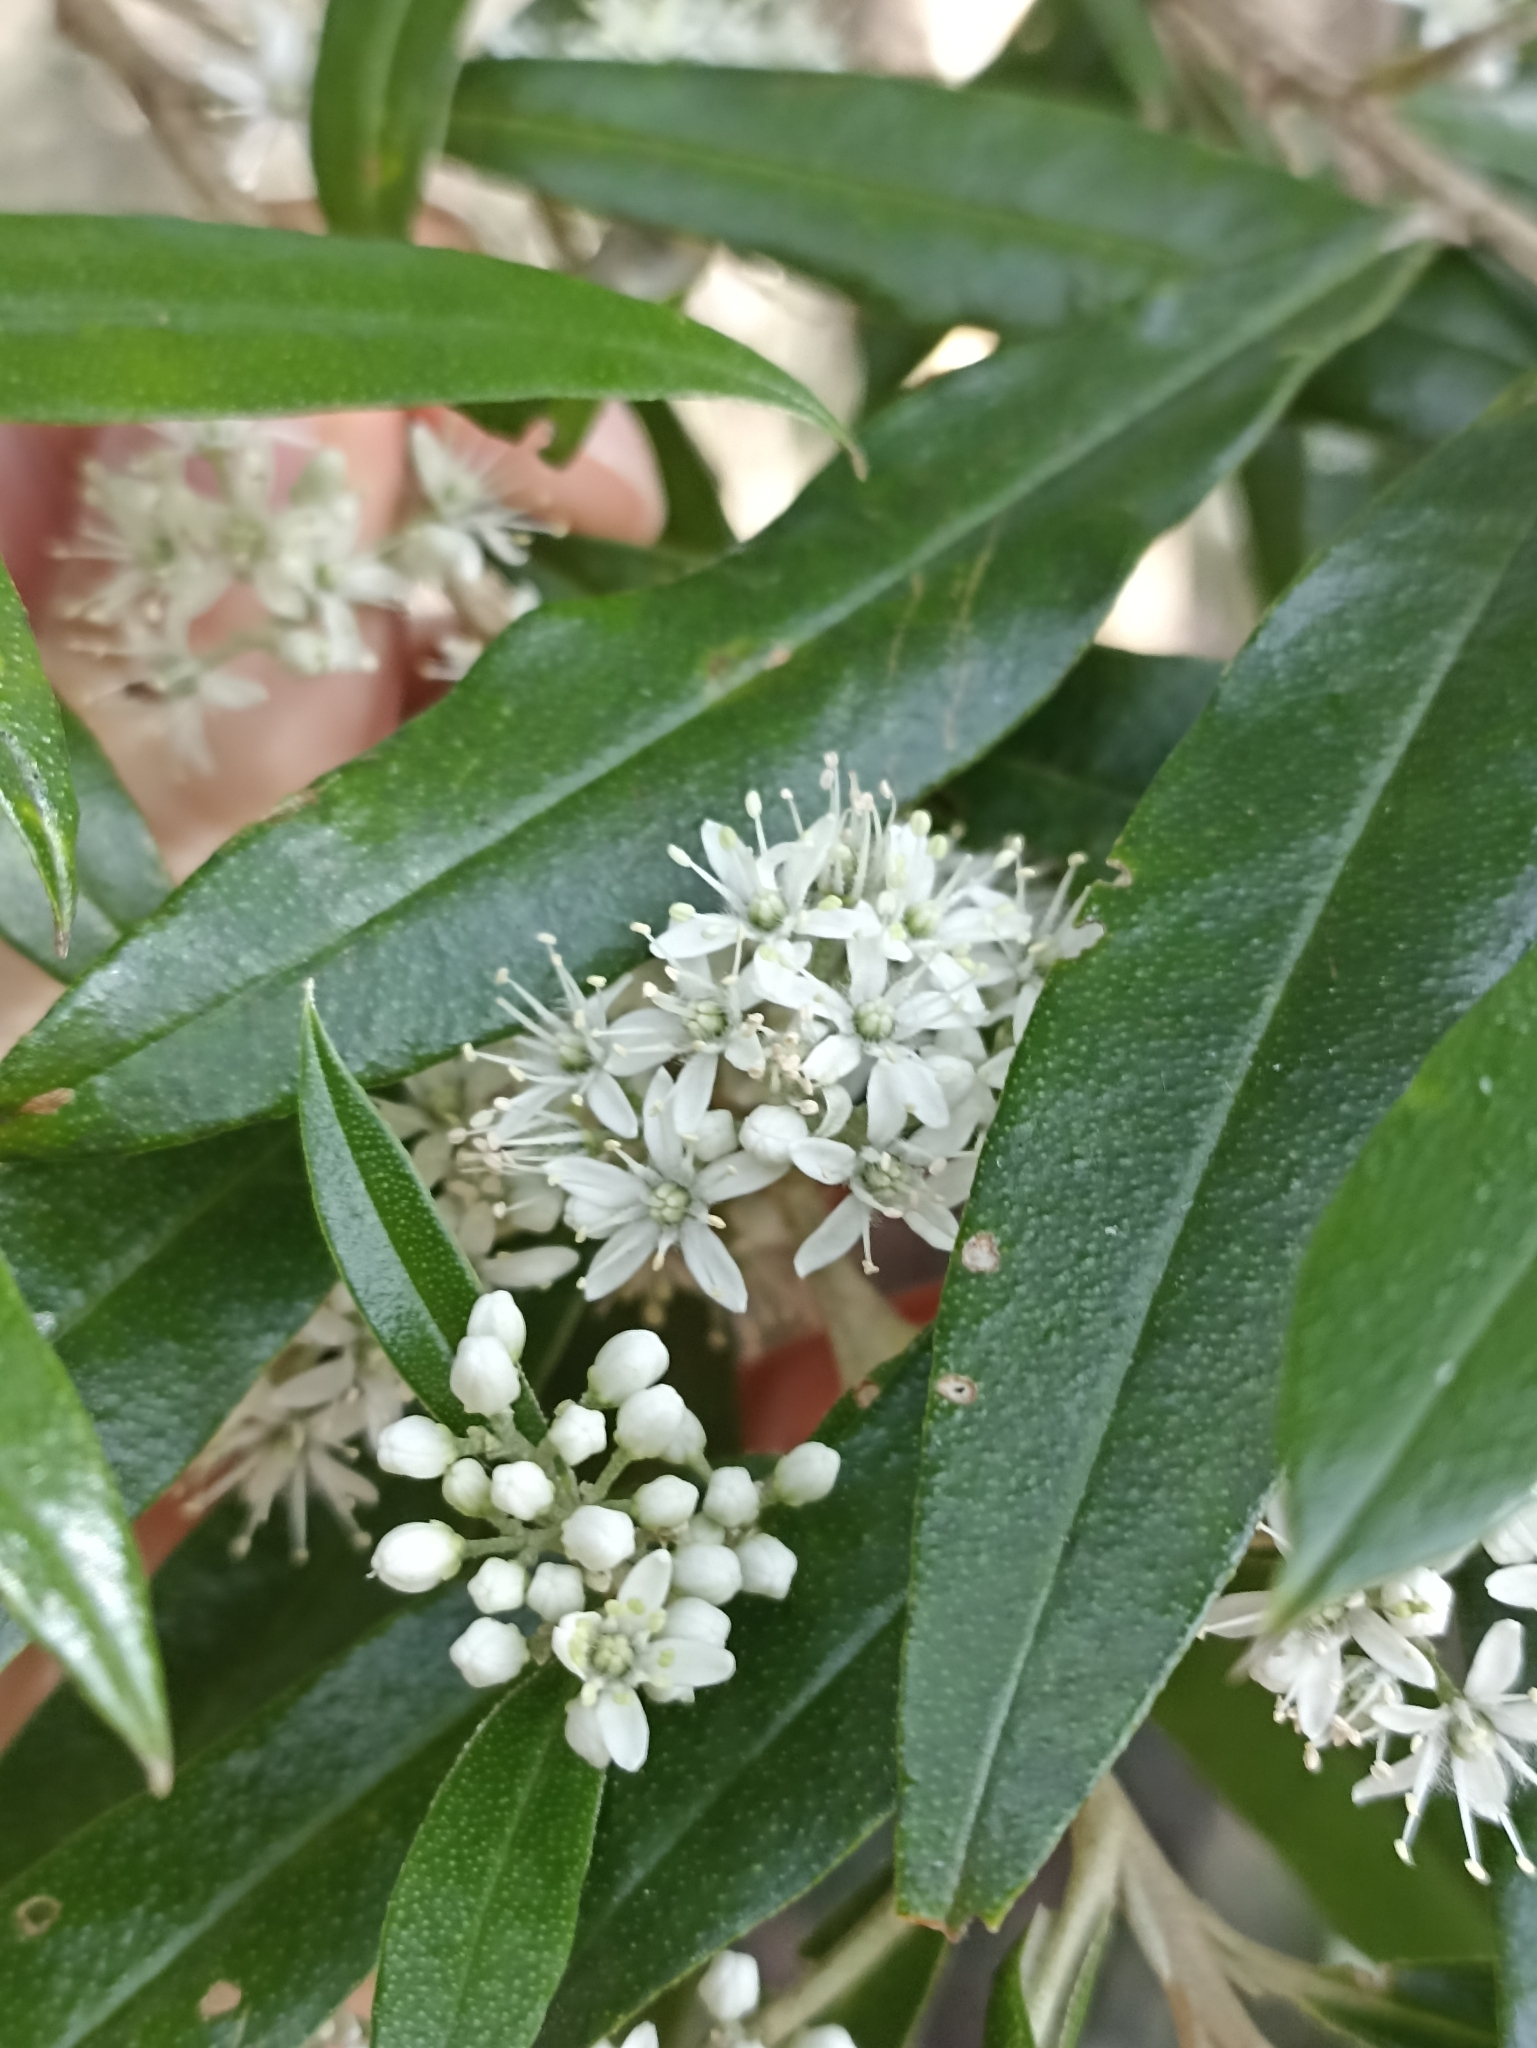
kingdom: Plantae
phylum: Tracheophyta
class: Magnoliopsida
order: Sapindales
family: Rutaceae
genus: Nematolepis
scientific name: Nematolepis squamea
